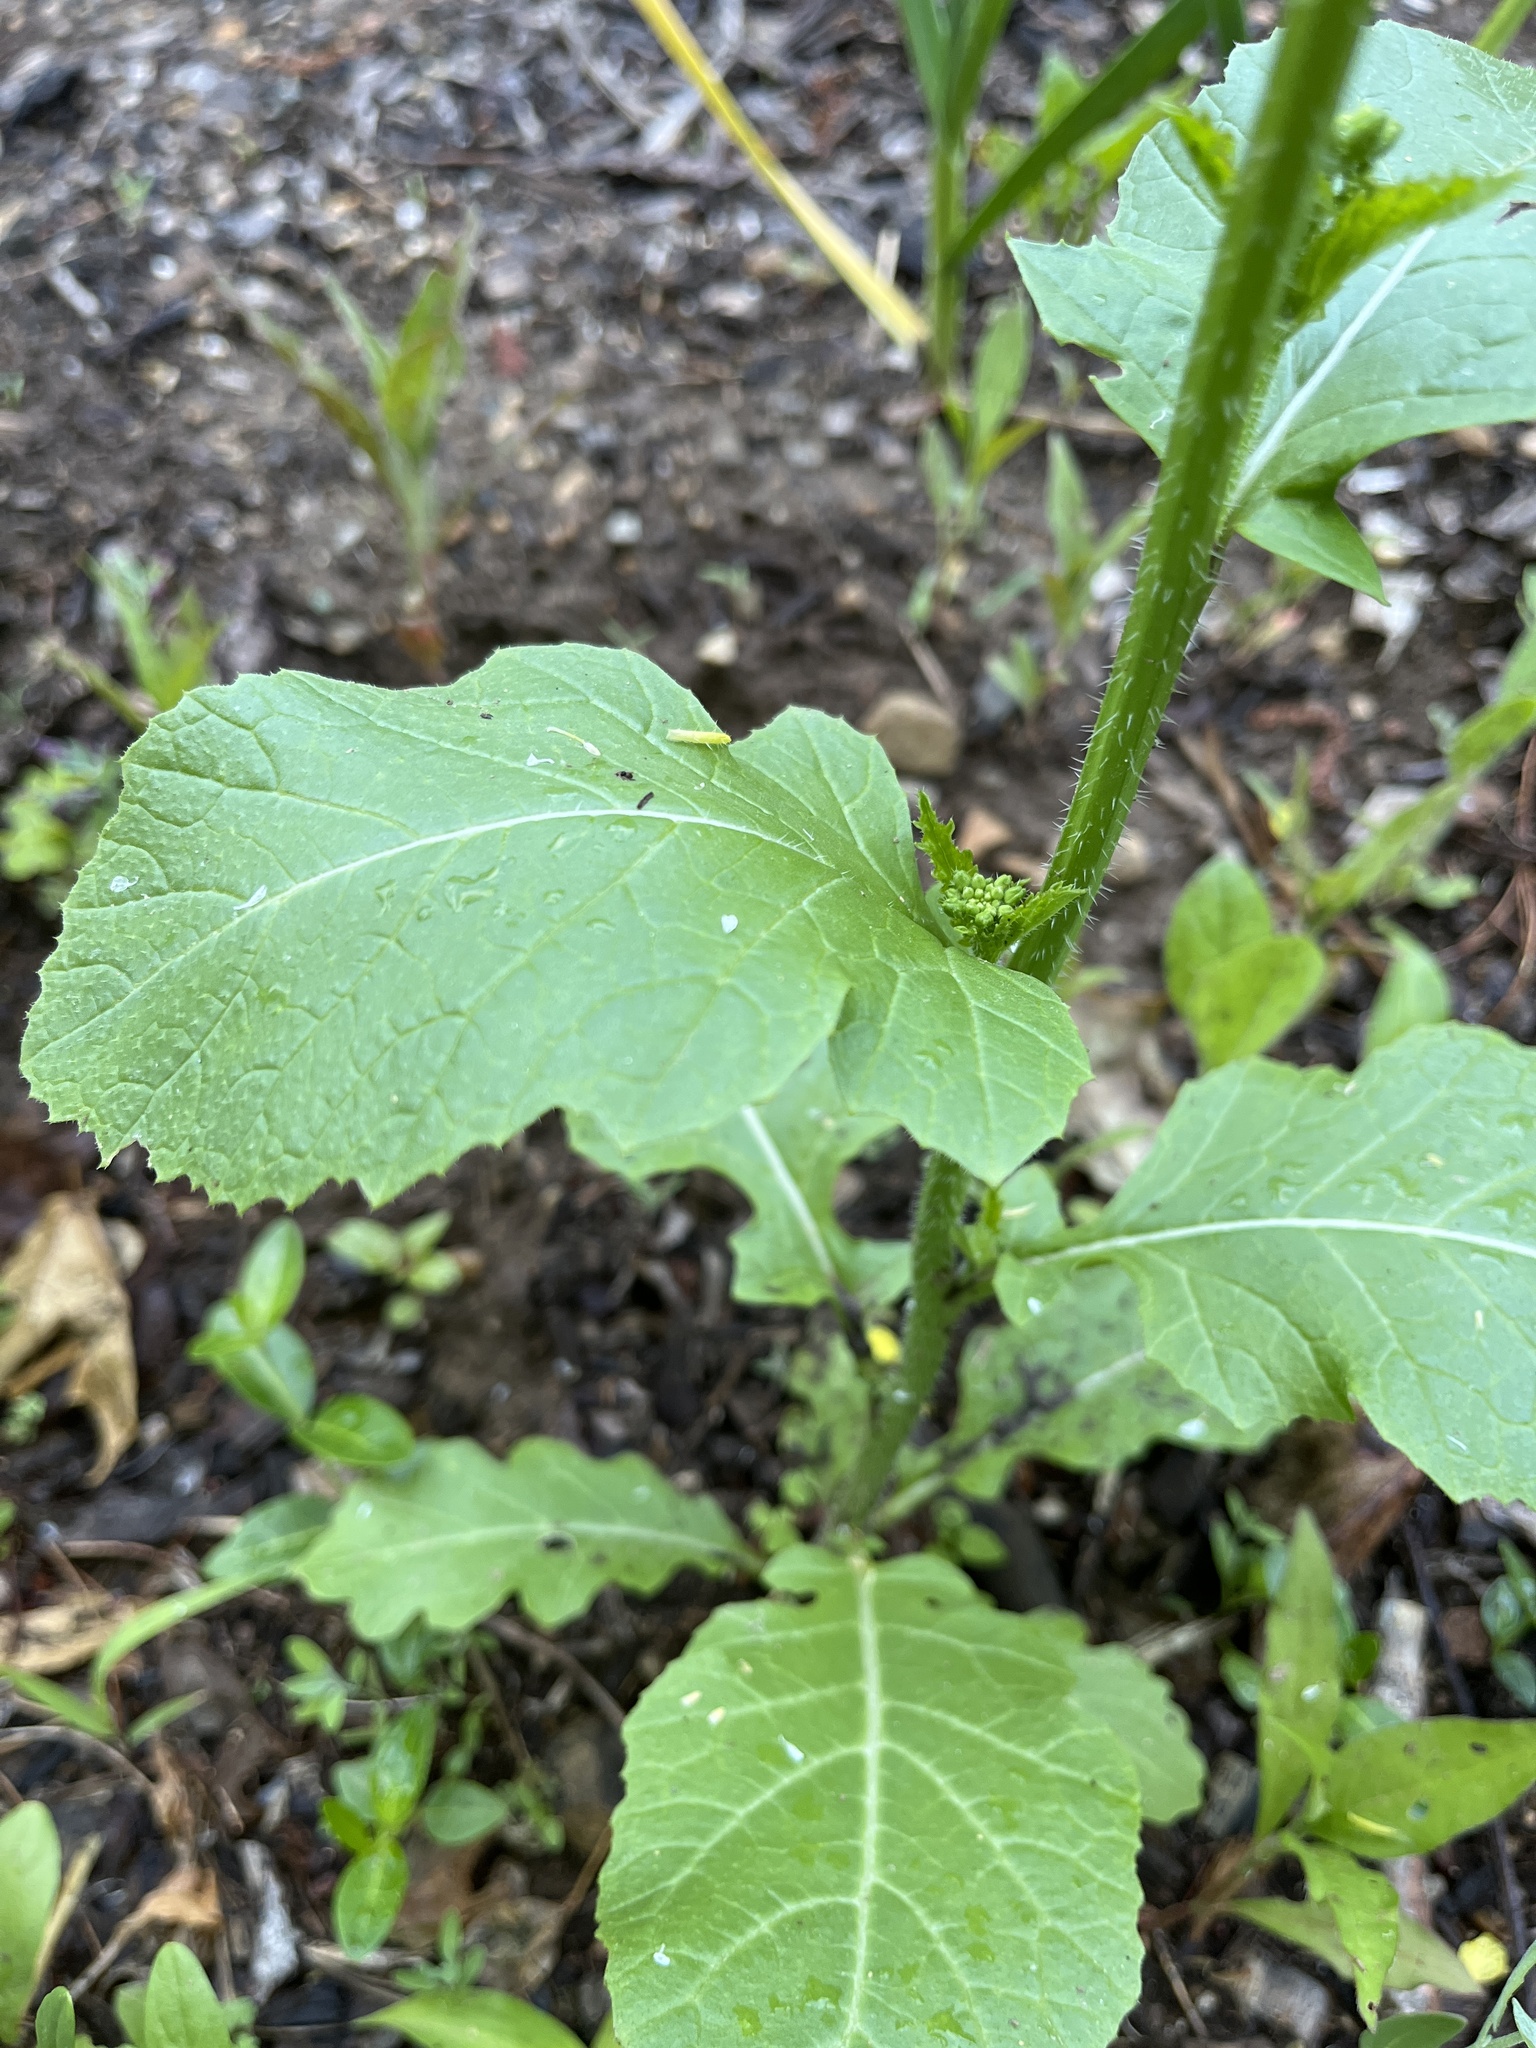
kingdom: Plantae
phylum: Tracheophyta
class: Magnoliopsida
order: Brassicales
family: Brassicaceae
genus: Sinapis
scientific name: Sinapis arvensis
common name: Charlock
